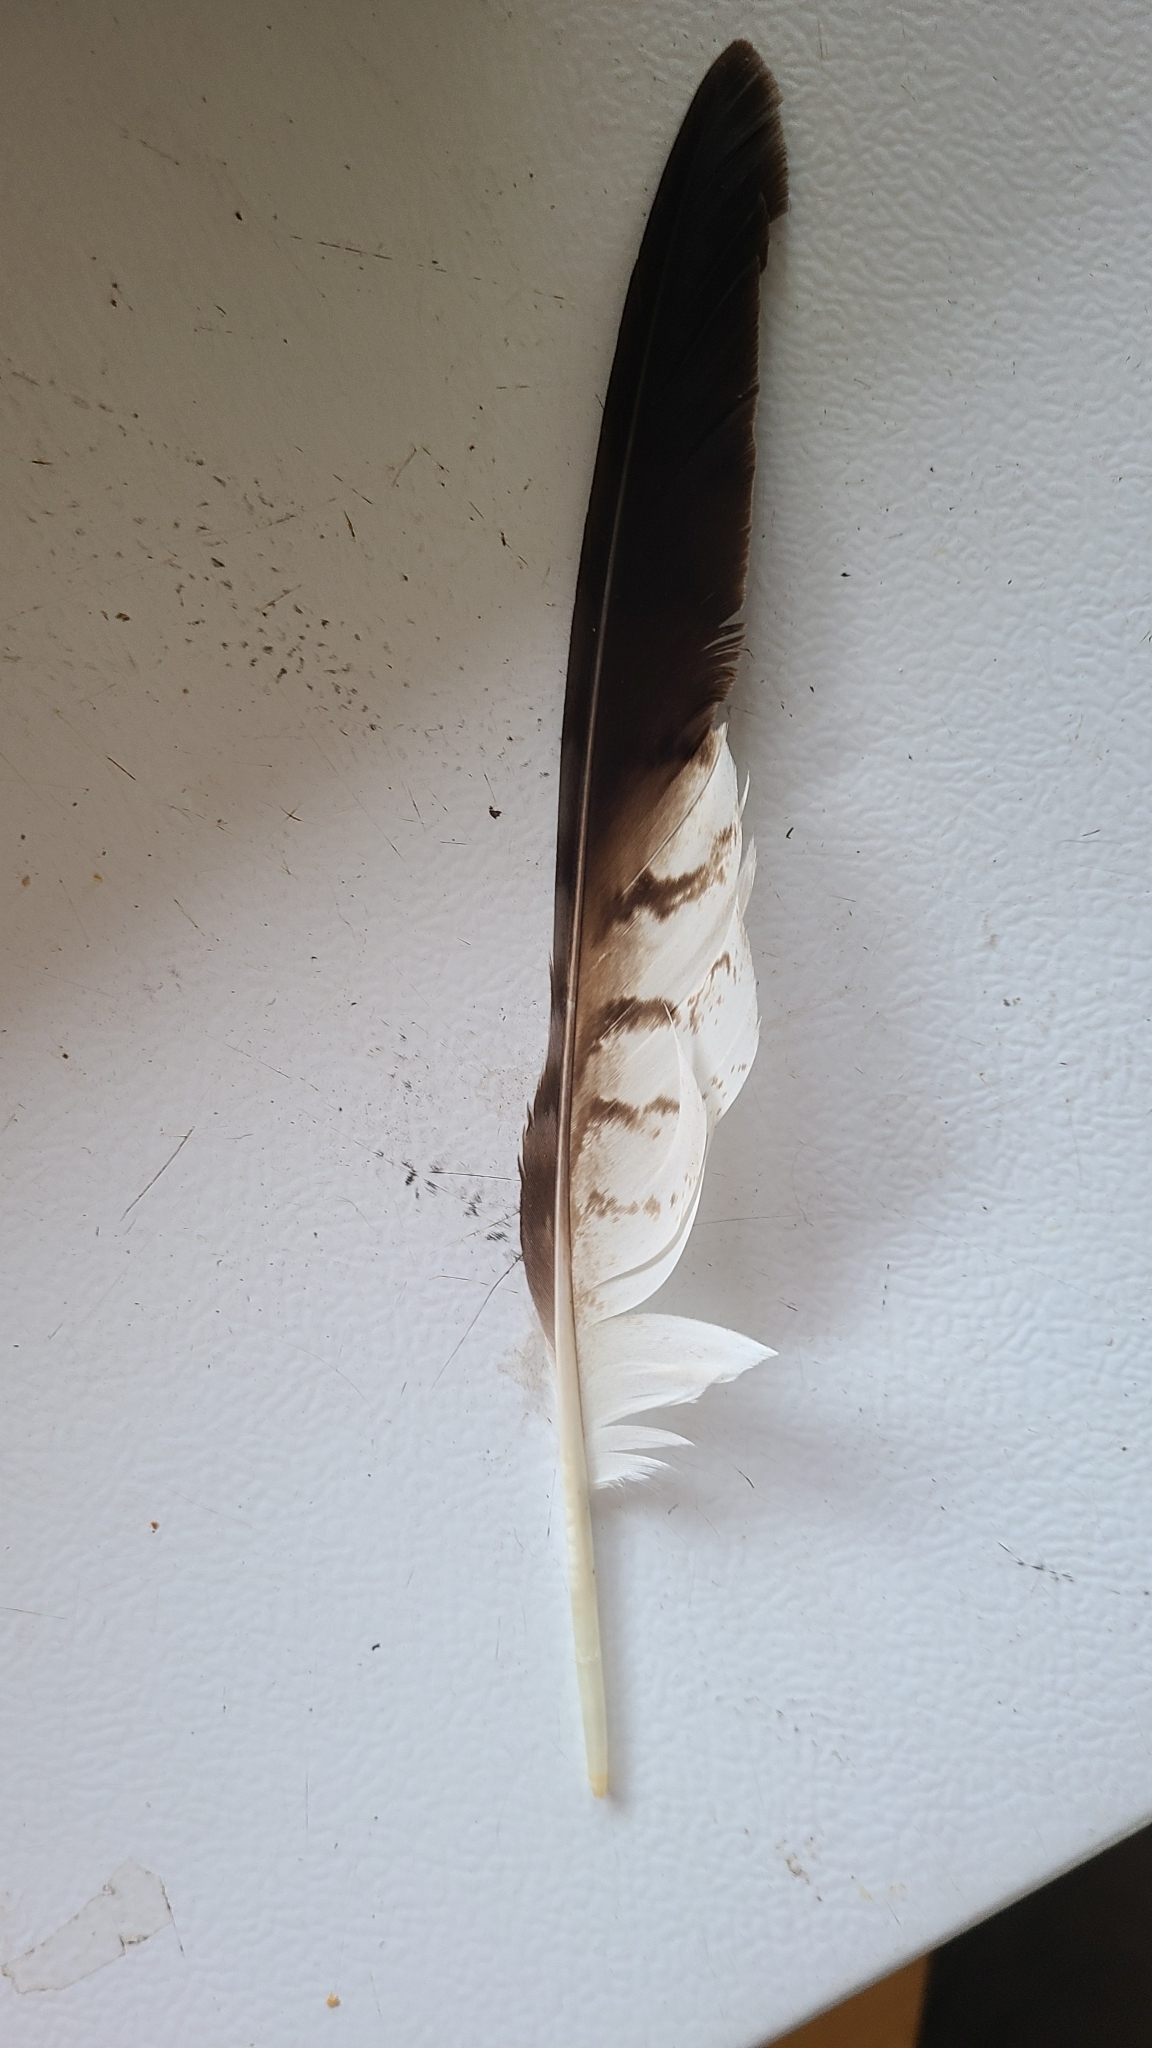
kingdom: Animalia
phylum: Chordata
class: Aves
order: Accipitriformes
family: Accipitridae
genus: Buteo
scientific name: Buteo jamaicensis
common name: Red-tailed hawk
